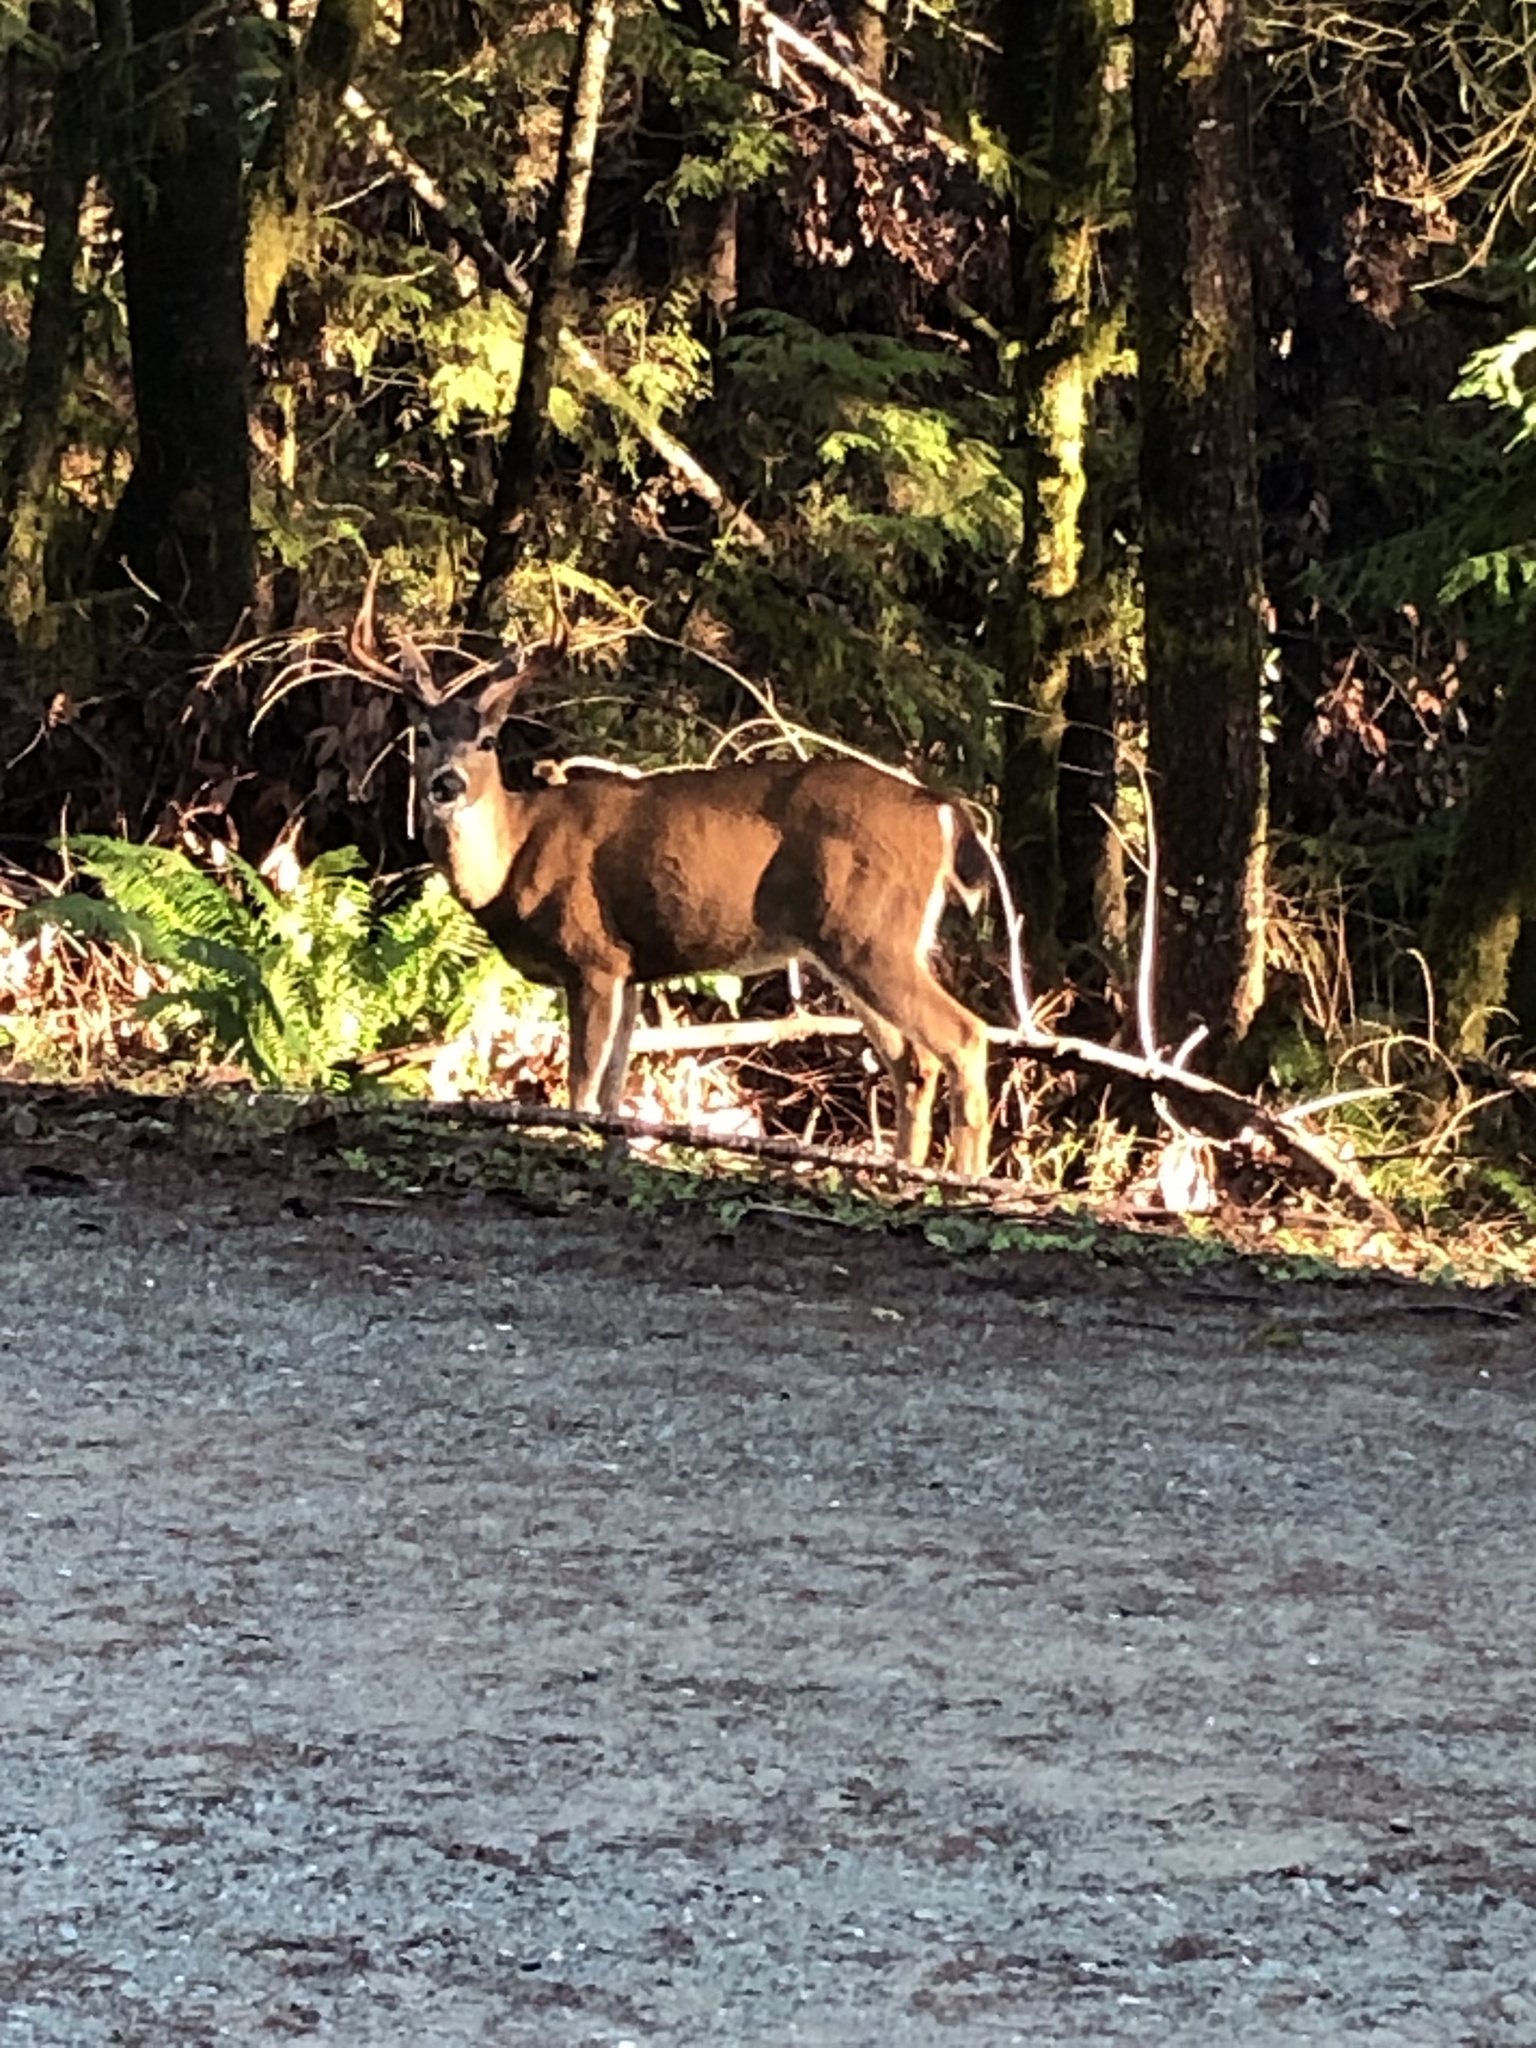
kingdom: Animalia
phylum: Chordata
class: Mammalia
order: Artiodactyla
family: Cervidae
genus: Odocoileus
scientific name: Odocoileus hemionus
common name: Mule deer
